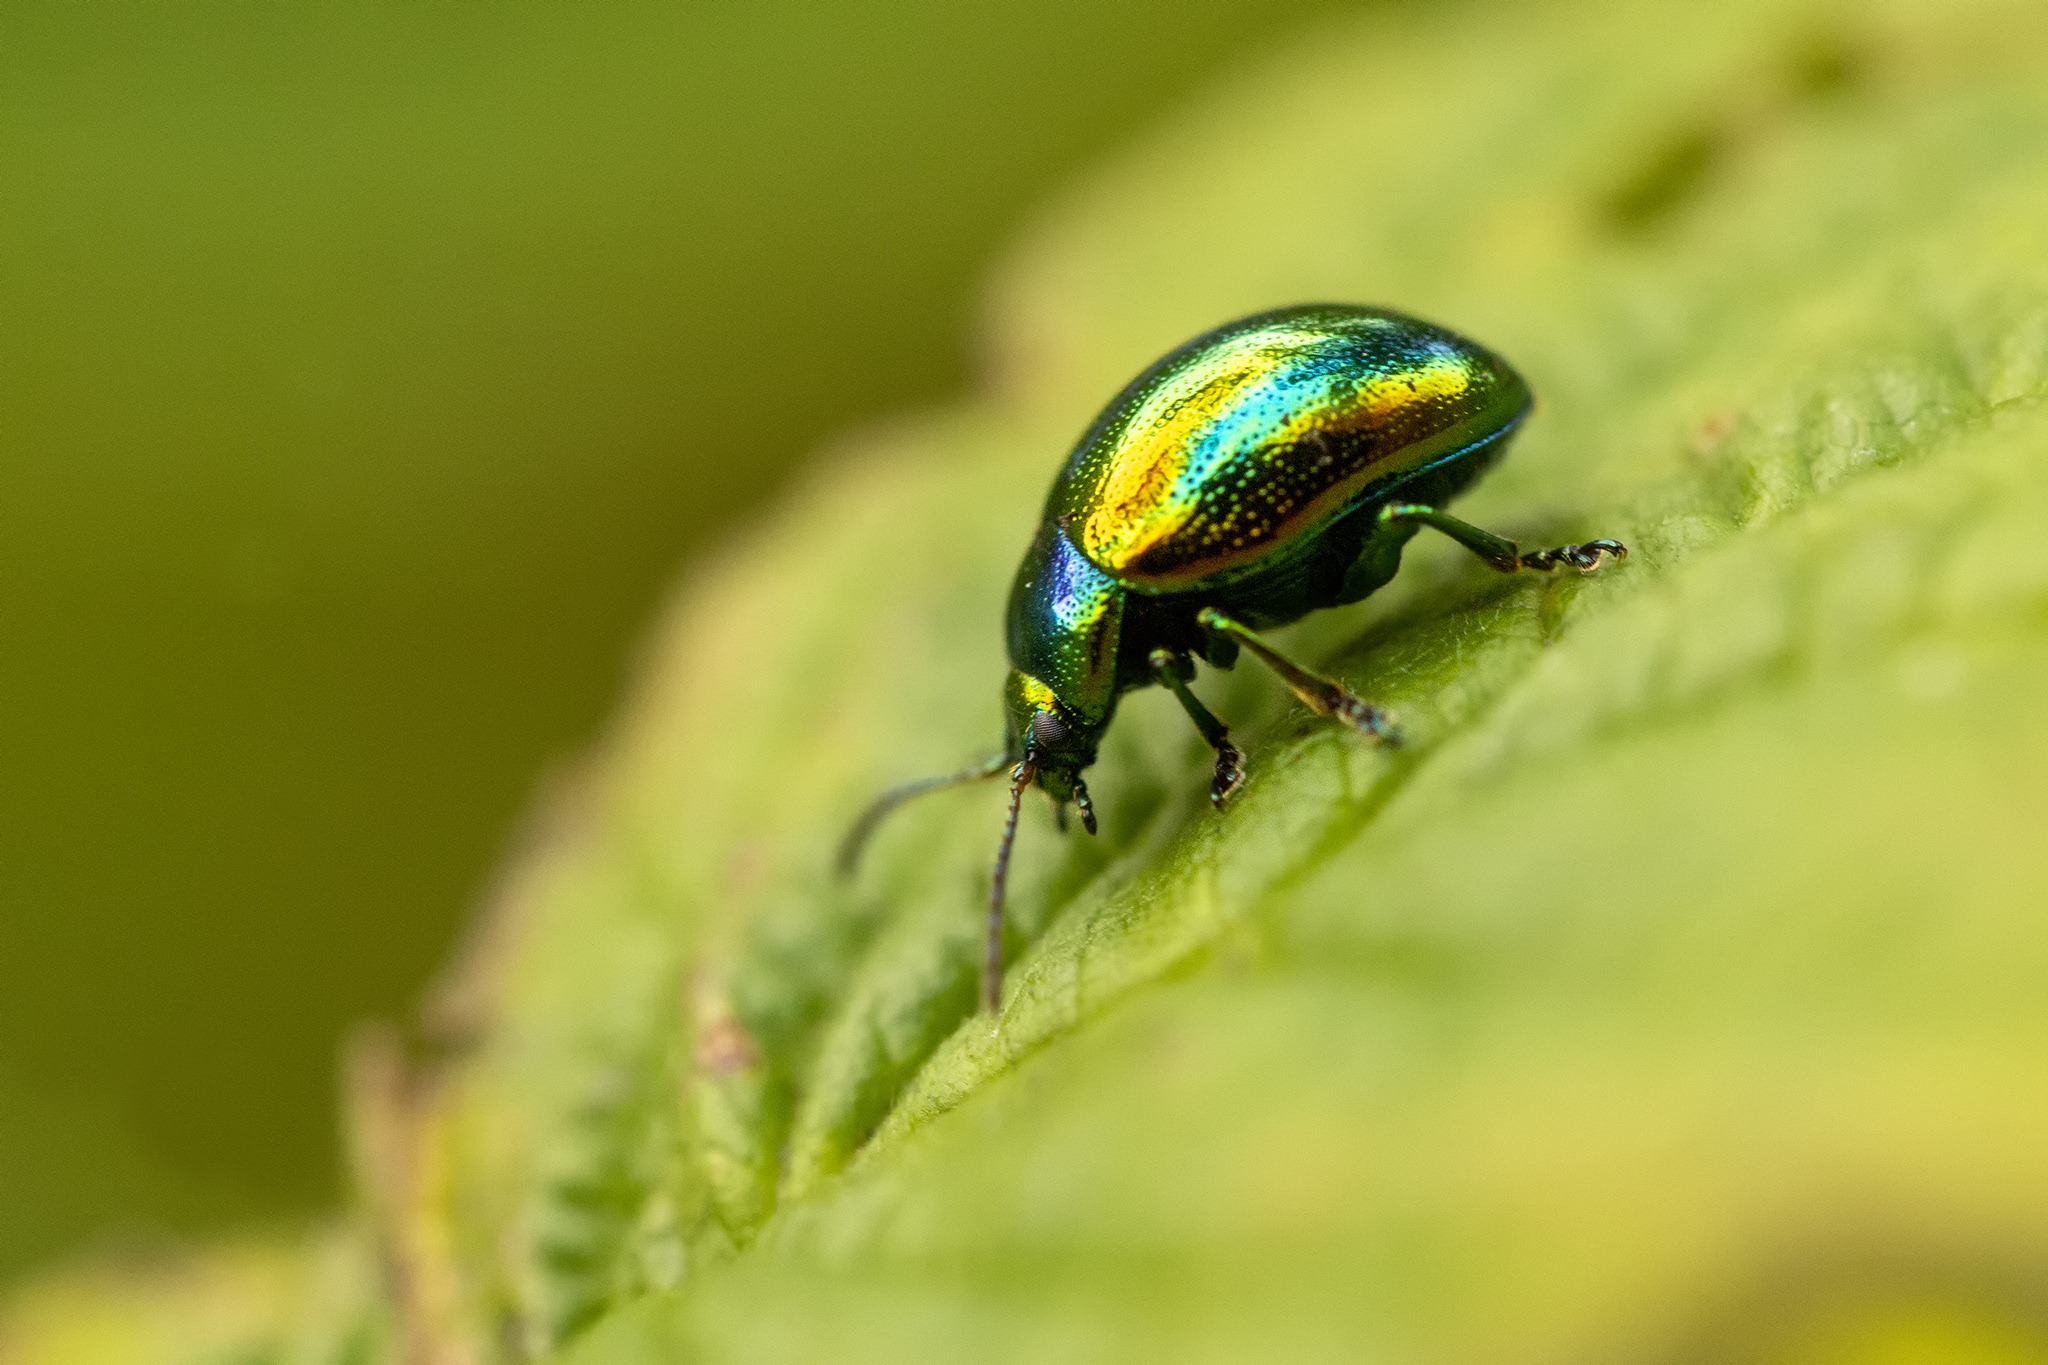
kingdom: Animalia
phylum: Arthropoda
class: Insecta
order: Coleoptera
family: Chrysomelidae
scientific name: Chrysomelidae
